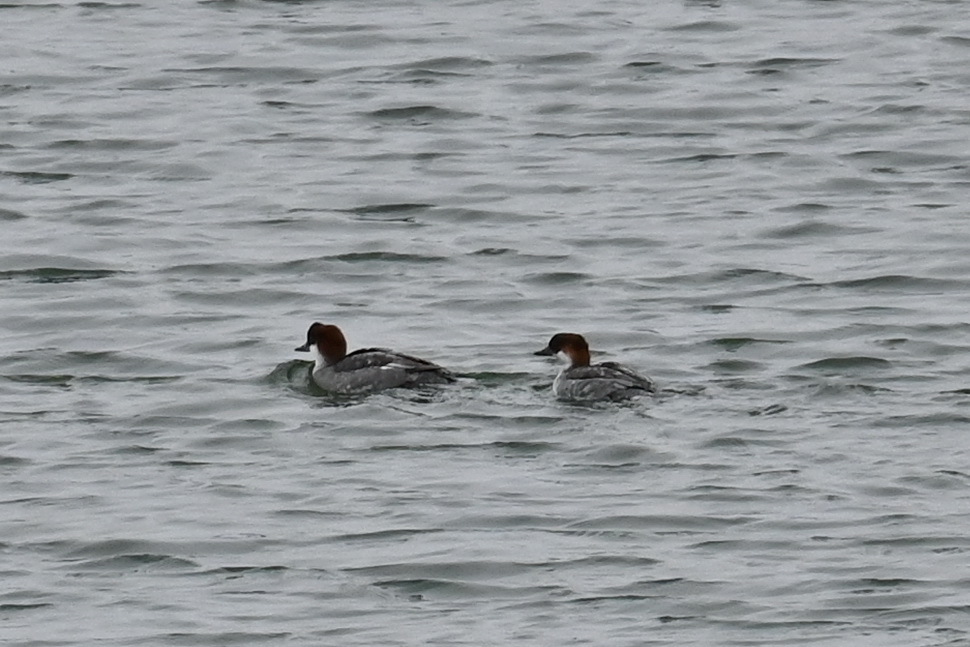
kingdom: Animalia
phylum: Chordata
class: Aves
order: Anseriformes
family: Anatidae
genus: Mergellus
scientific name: Mergellus albellus
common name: Smew
